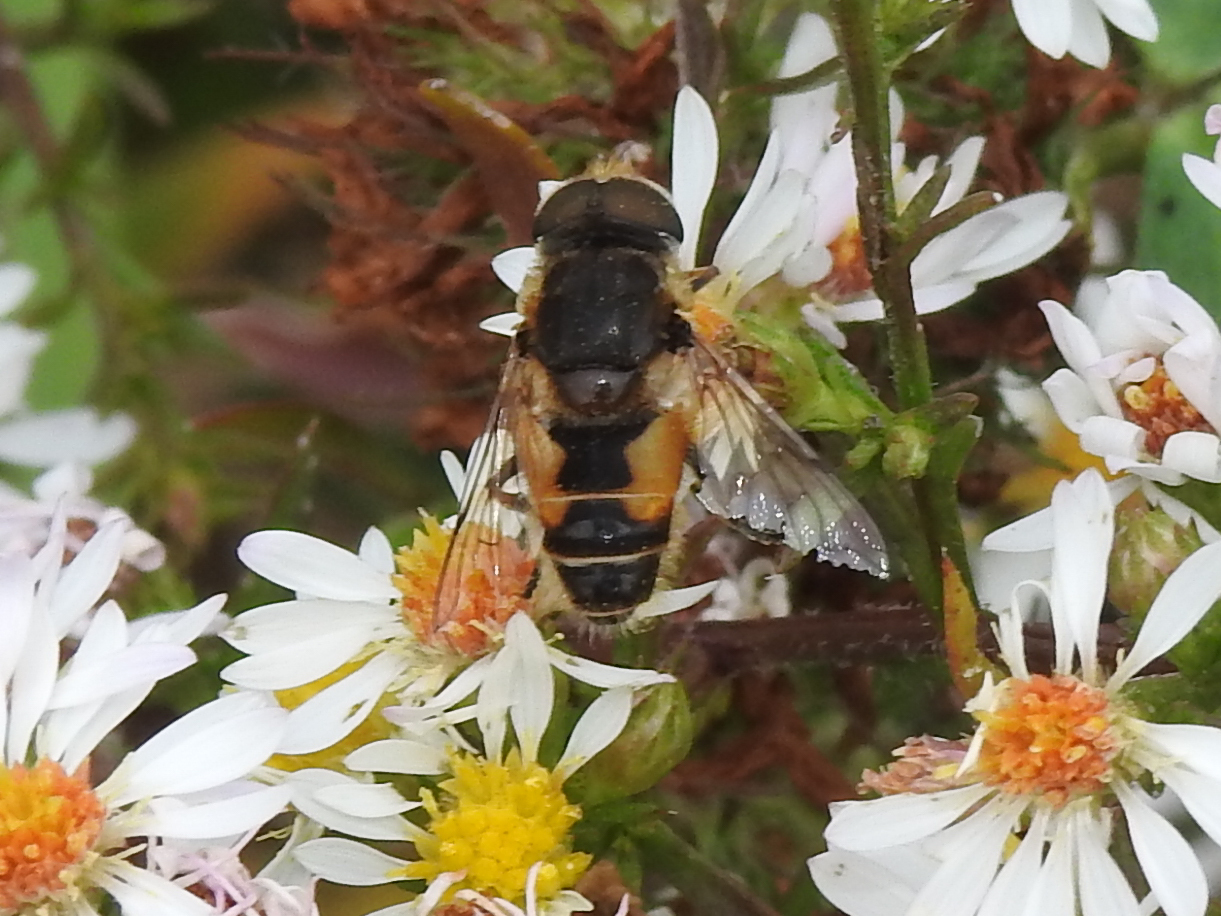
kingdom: Animalia
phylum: Arthropoda
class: Insecta
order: Diptera
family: Syrphidae
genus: Eristalis
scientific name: Eristalis arbustorum
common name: Hover fly
